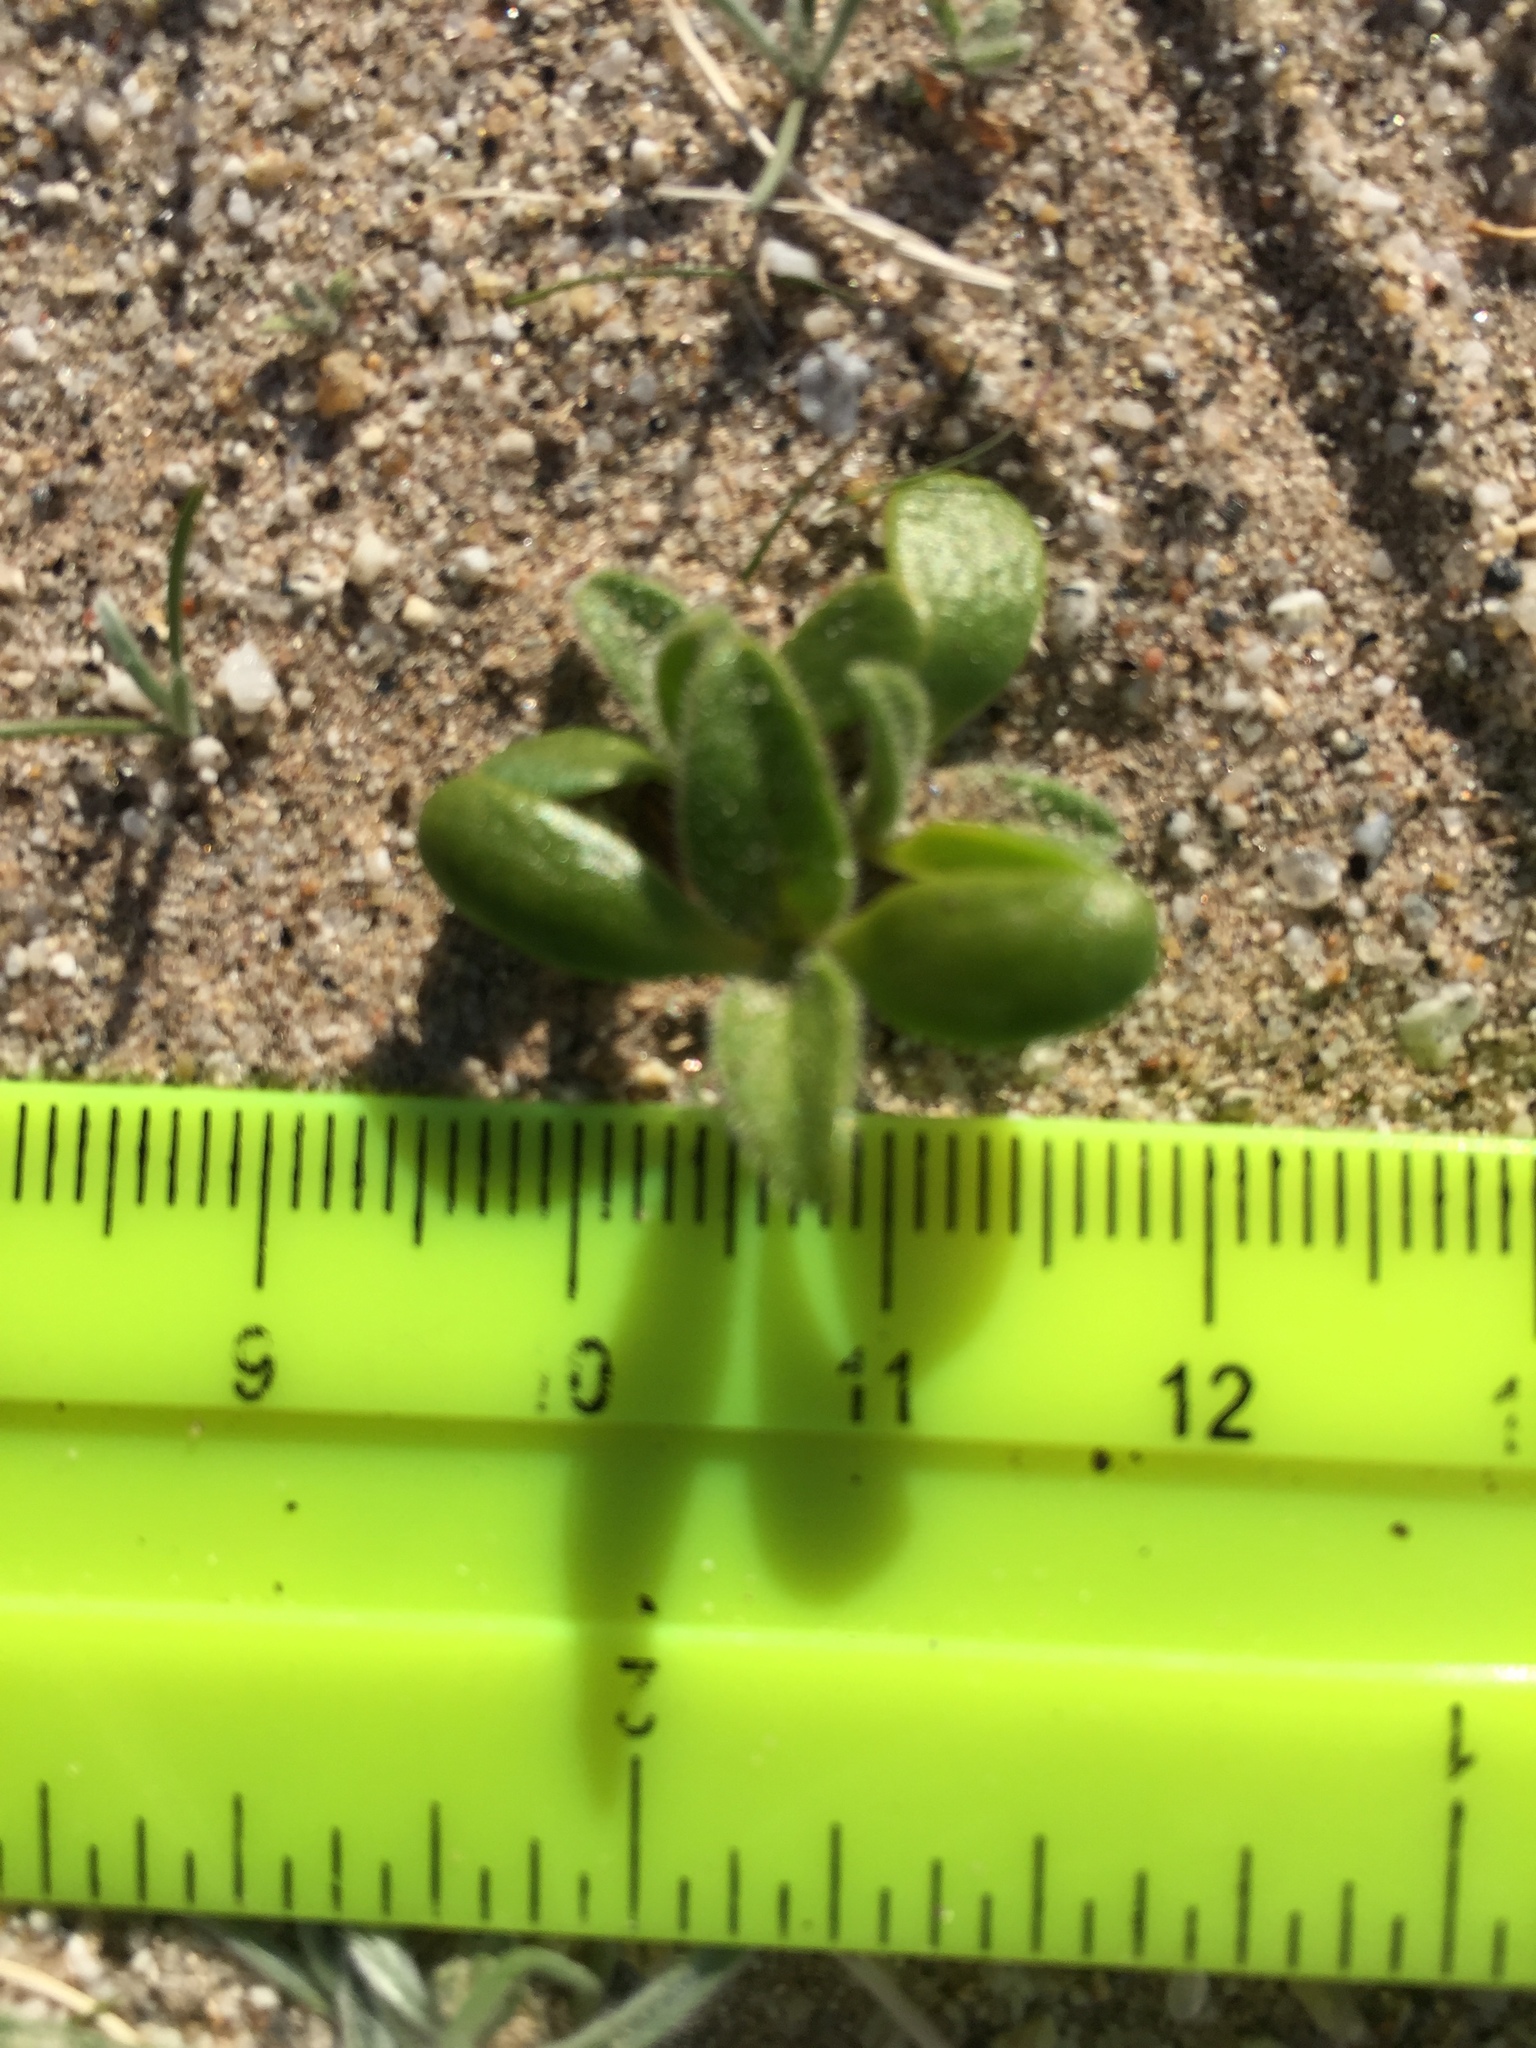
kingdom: Plantae
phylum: Tracheophyta
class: Magnoliopsida
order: Asterales
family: Asteraceae
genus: Geraea
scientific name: Geraea canescens
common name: Desert-gold
